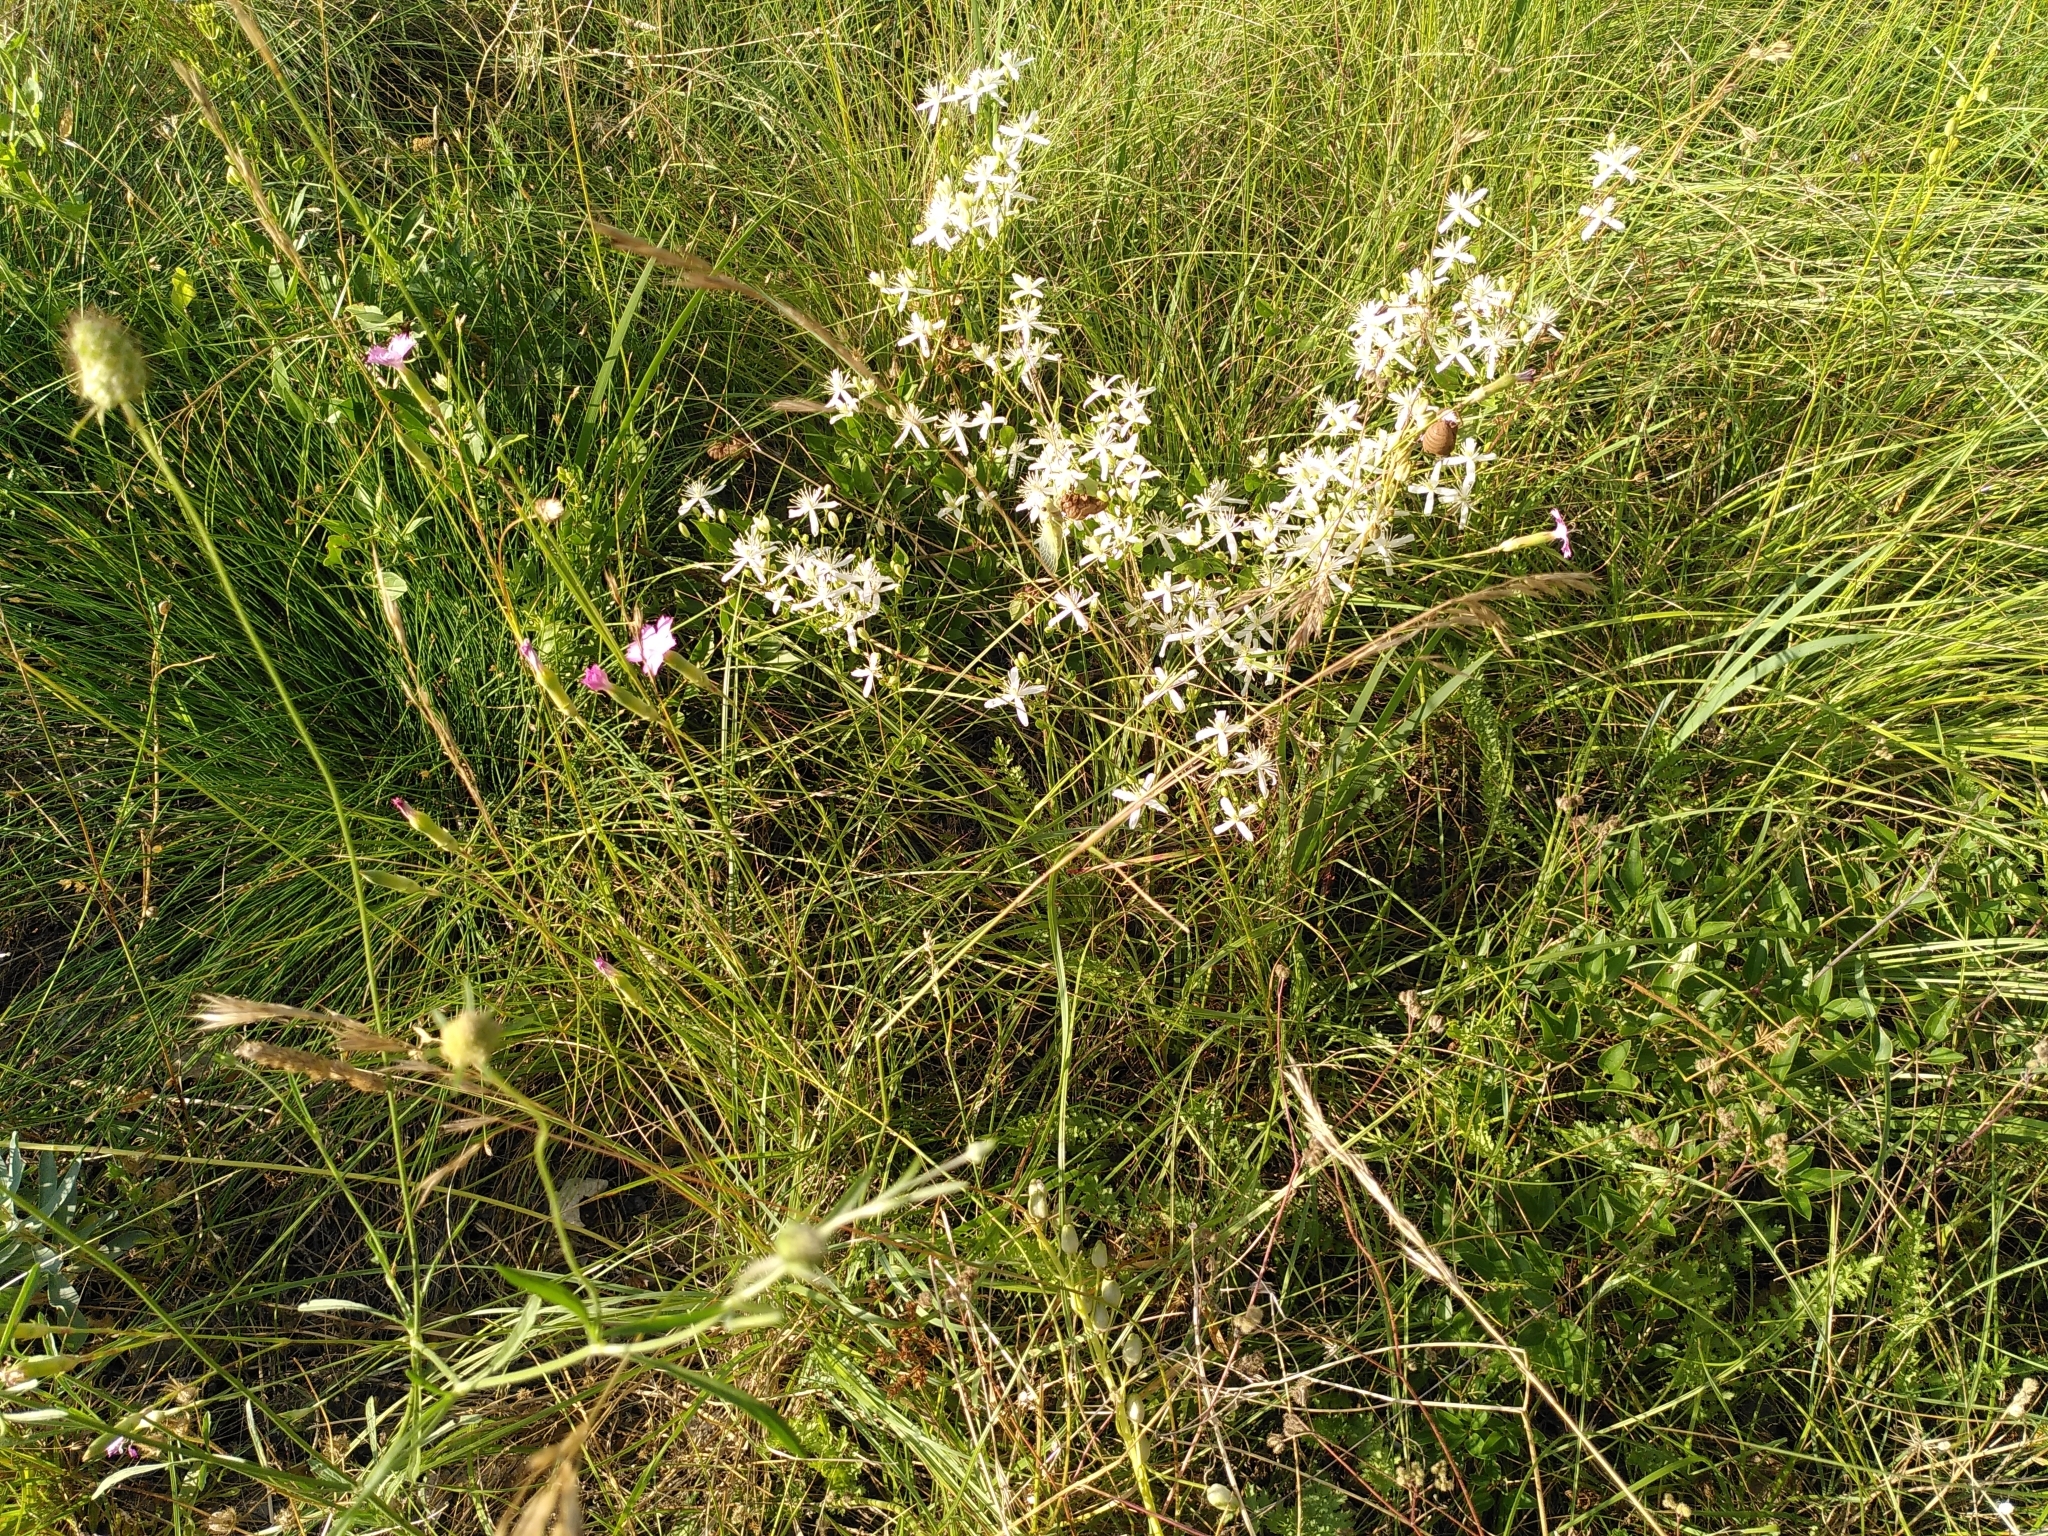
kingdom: Plantae
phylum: Tracheophyta
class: Magnoliopsida
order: Caryophyllales
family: Caryophyllaceae
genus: Dianthus
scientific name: Dianthus virgineus
